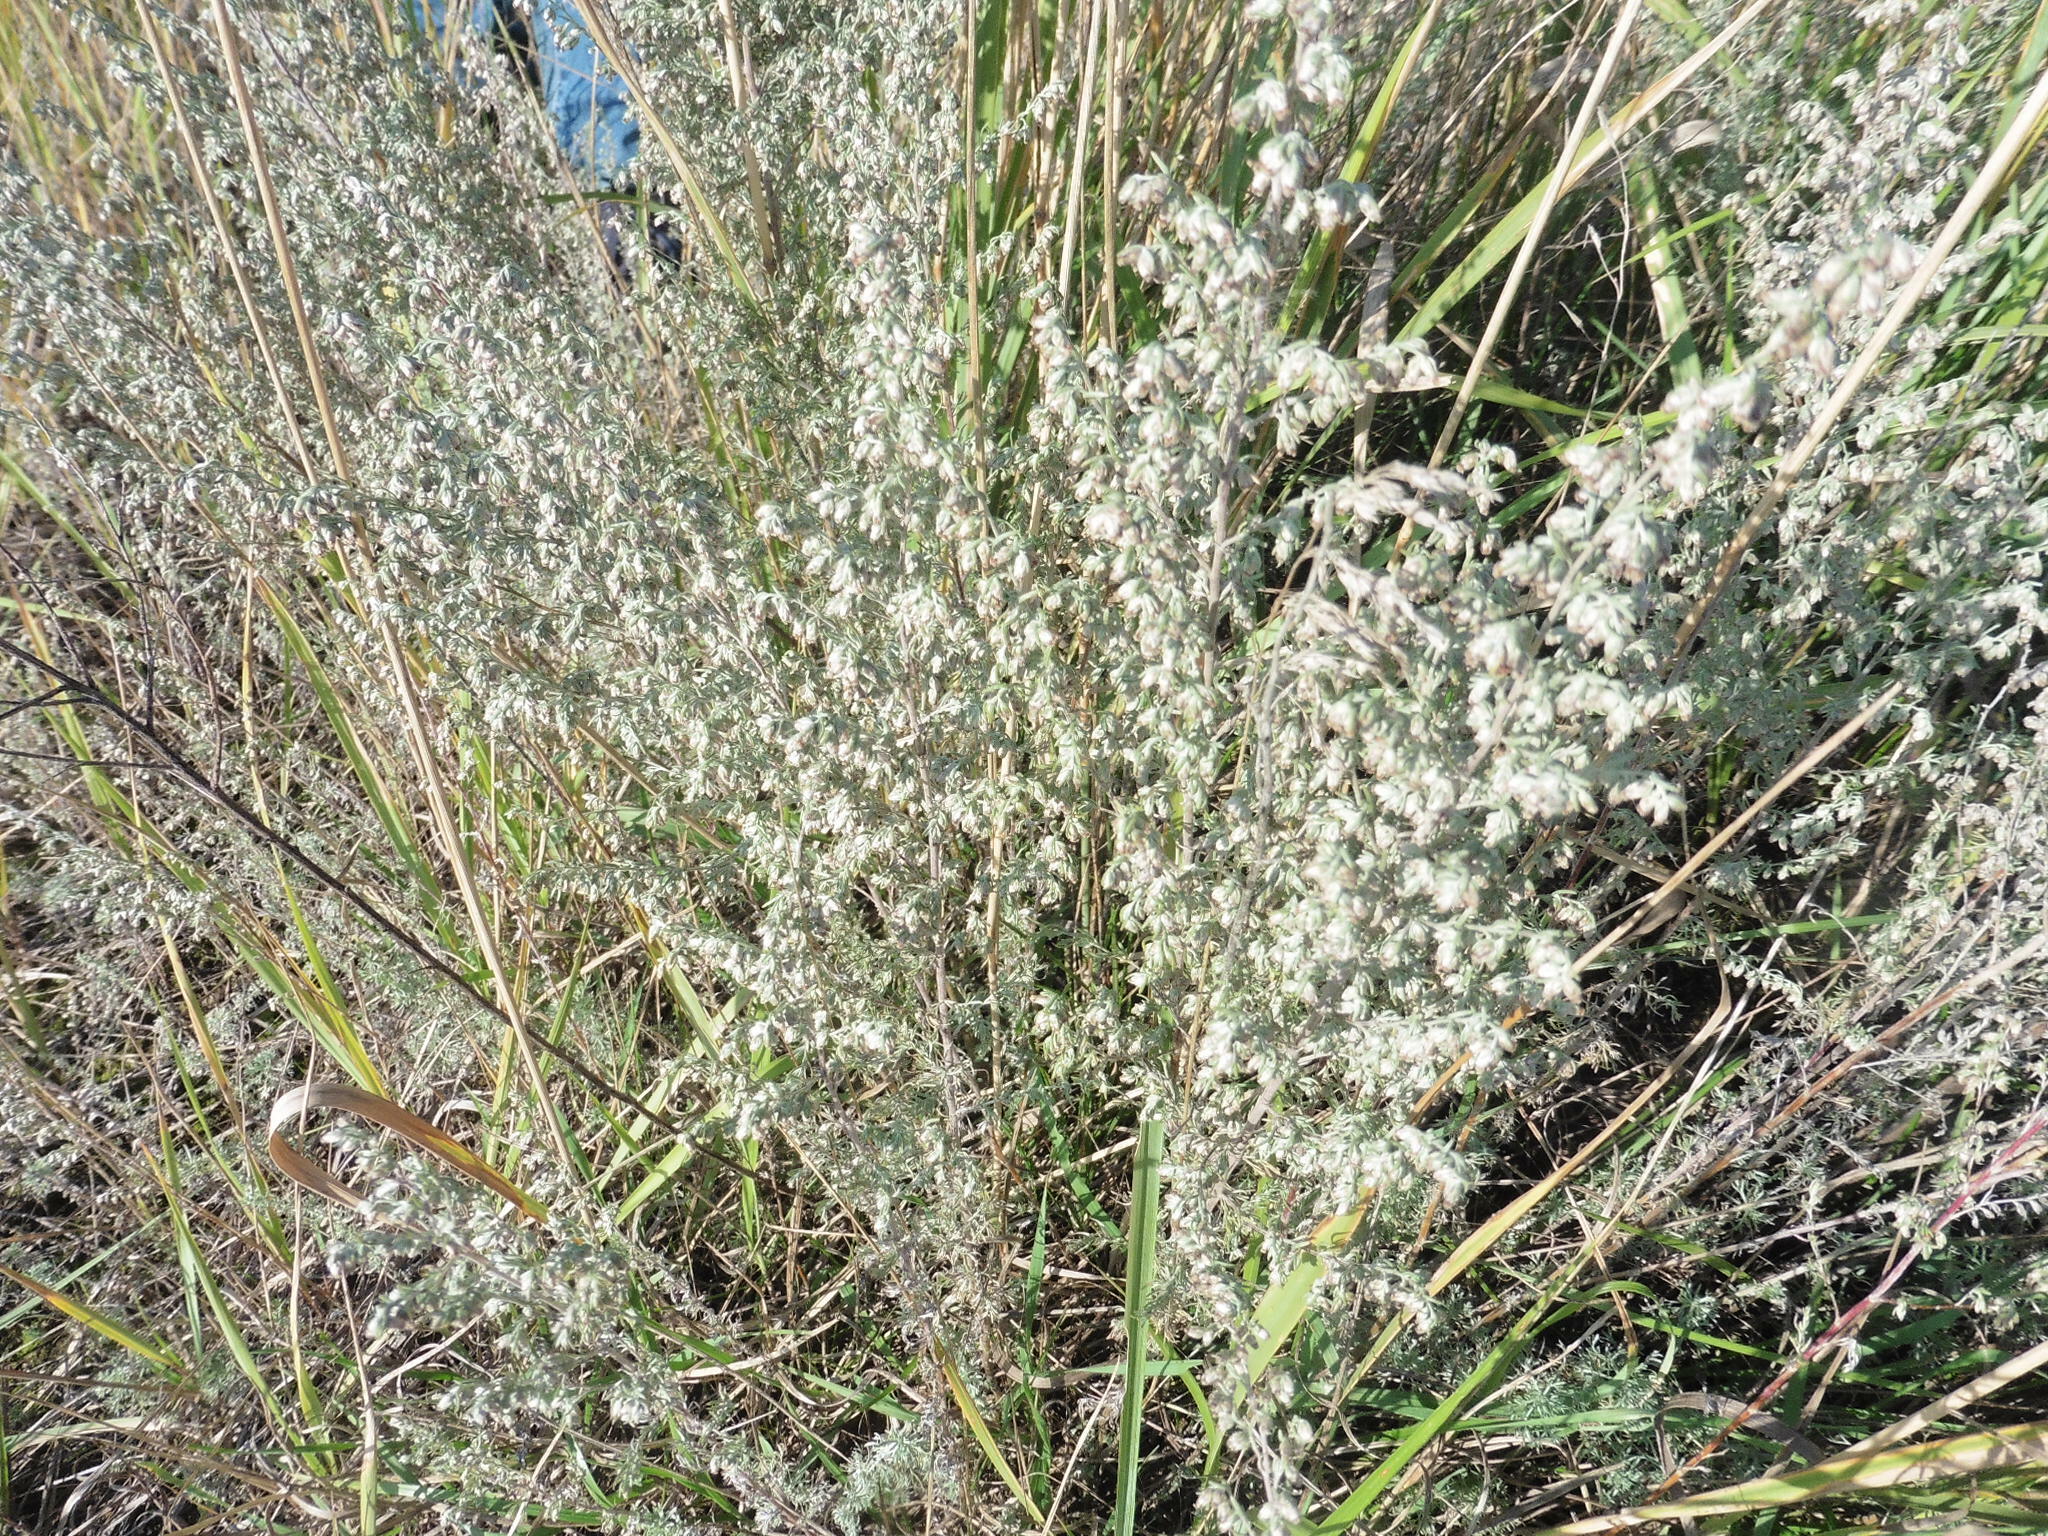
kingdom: Plantae
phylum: Tracheophyta
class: Magnoliopsida
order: Asterales
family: Asteraceae
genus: Artemisia
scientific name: Artemisia austriaca
